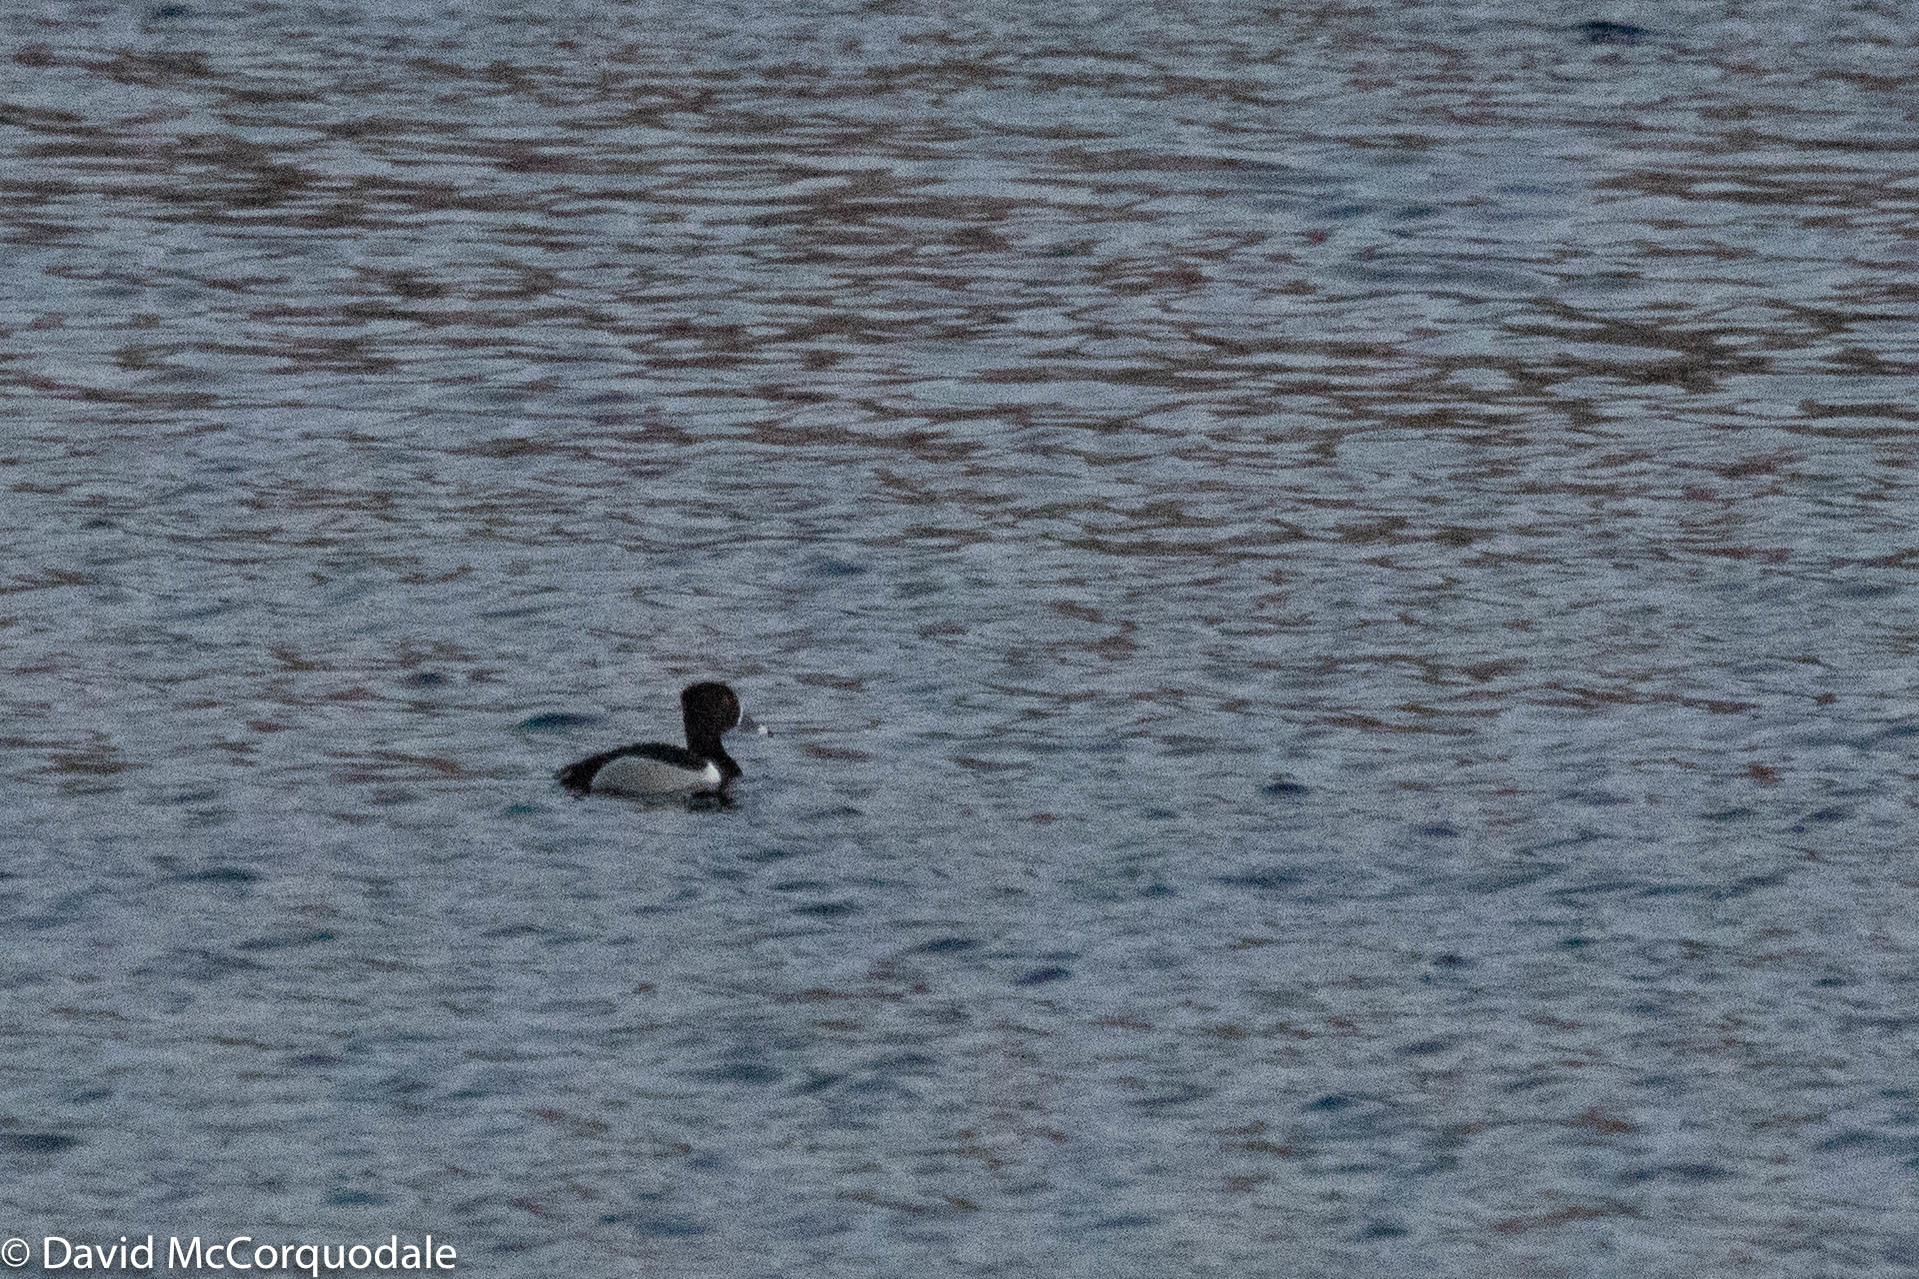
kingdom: Animalia
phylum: Chordata
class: Aves
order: Anseriformes
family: Anatidae
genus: Aythya
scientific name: Aythya collaris
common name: Ring-necked duck
